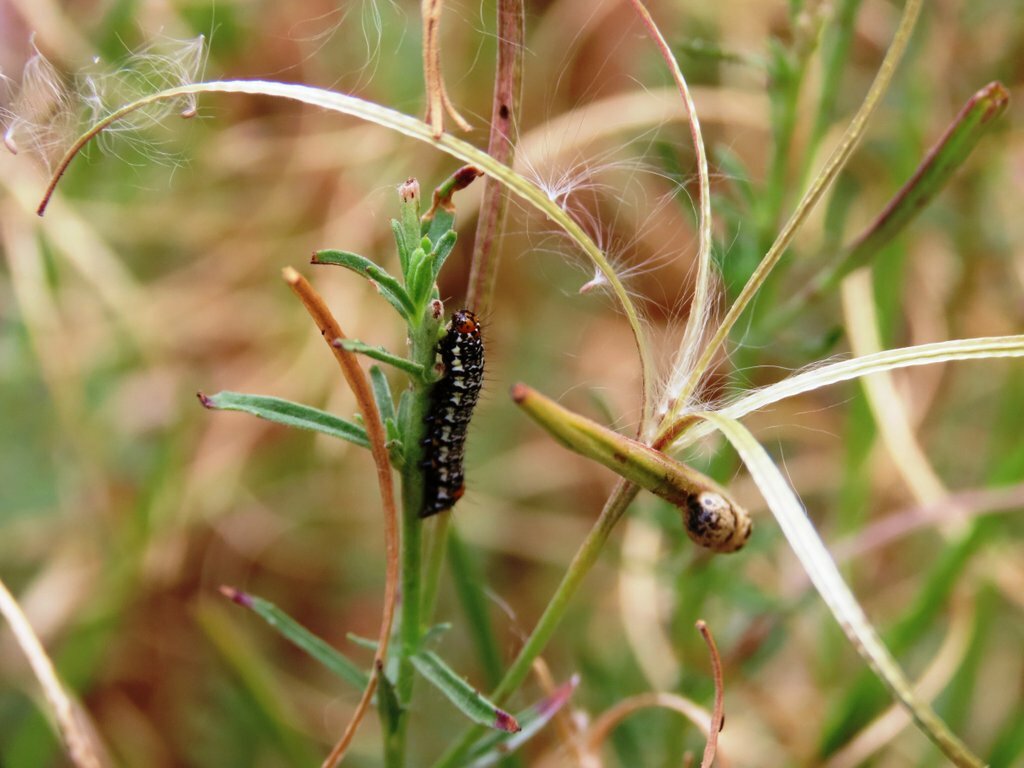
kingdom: Animalia
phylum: Arthropoda
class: Insecta
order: Lepidoptera
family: Noctuidae
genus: Phalaenoides
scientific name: Phalaenoides tristifica
